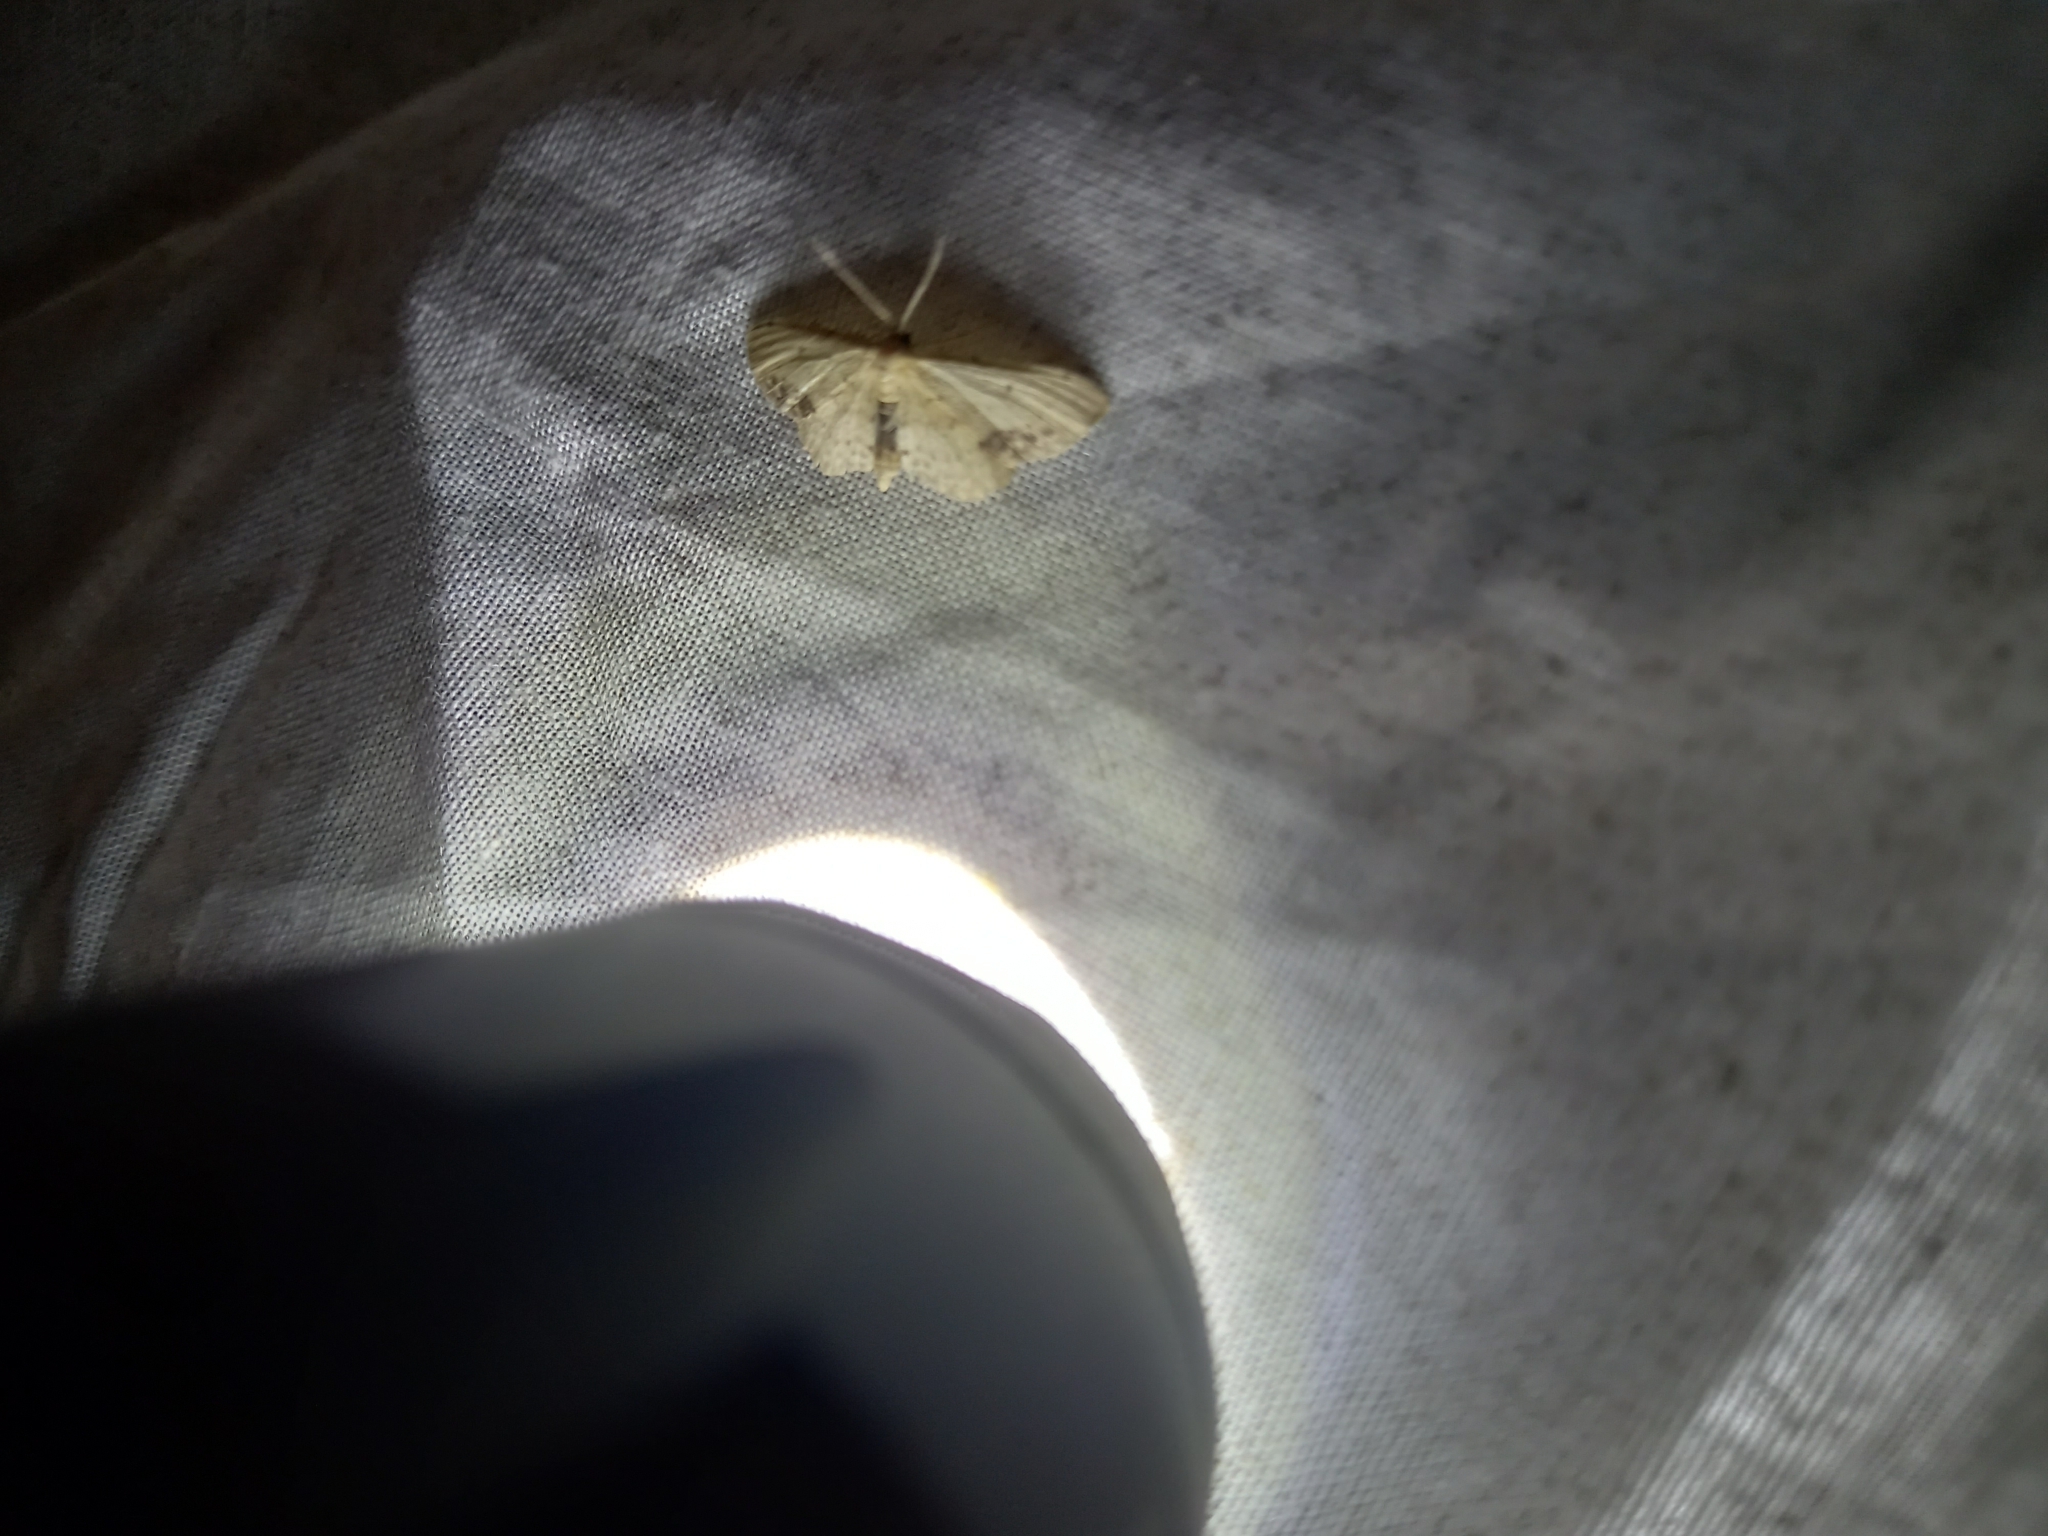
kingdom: Animalia
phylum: Arthropoda
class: Insecta
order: Lepidoptera
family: Geometridae
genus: Idaea
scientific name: Idaea dimidiata
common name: Single-dotted wave
